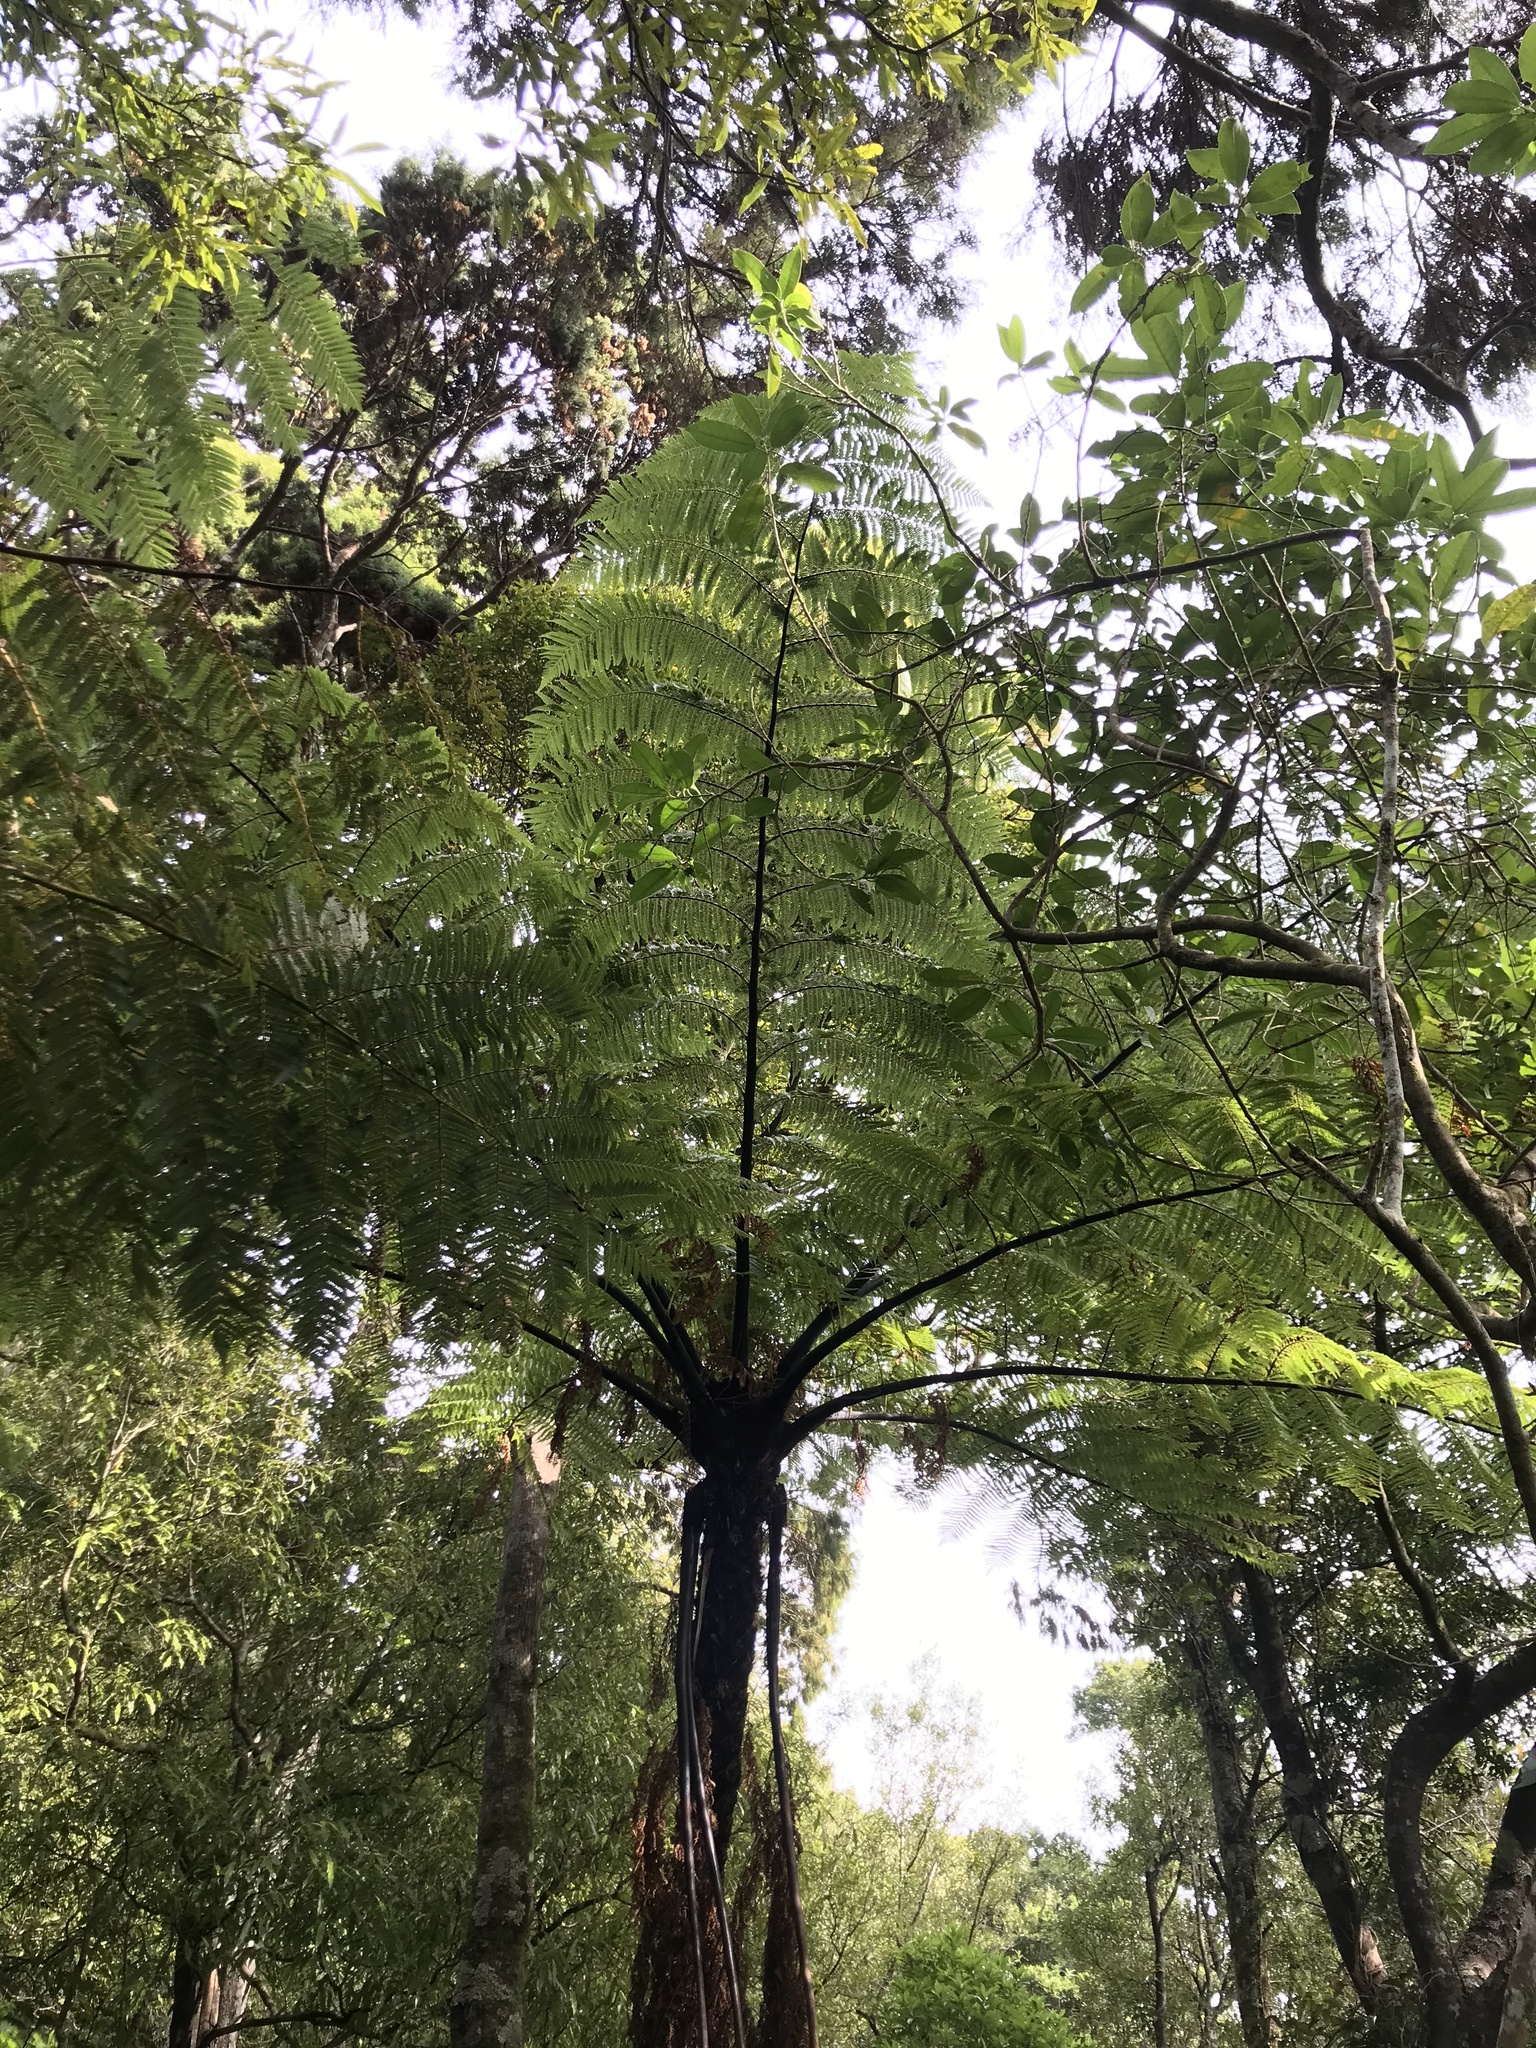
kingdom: Plantae
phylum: Tracheophyta
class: Polypodiopsida
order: Cyatheales
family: Cyatheaceae
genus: Sphaeropteris
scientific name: Sphaeropteris medullaris
